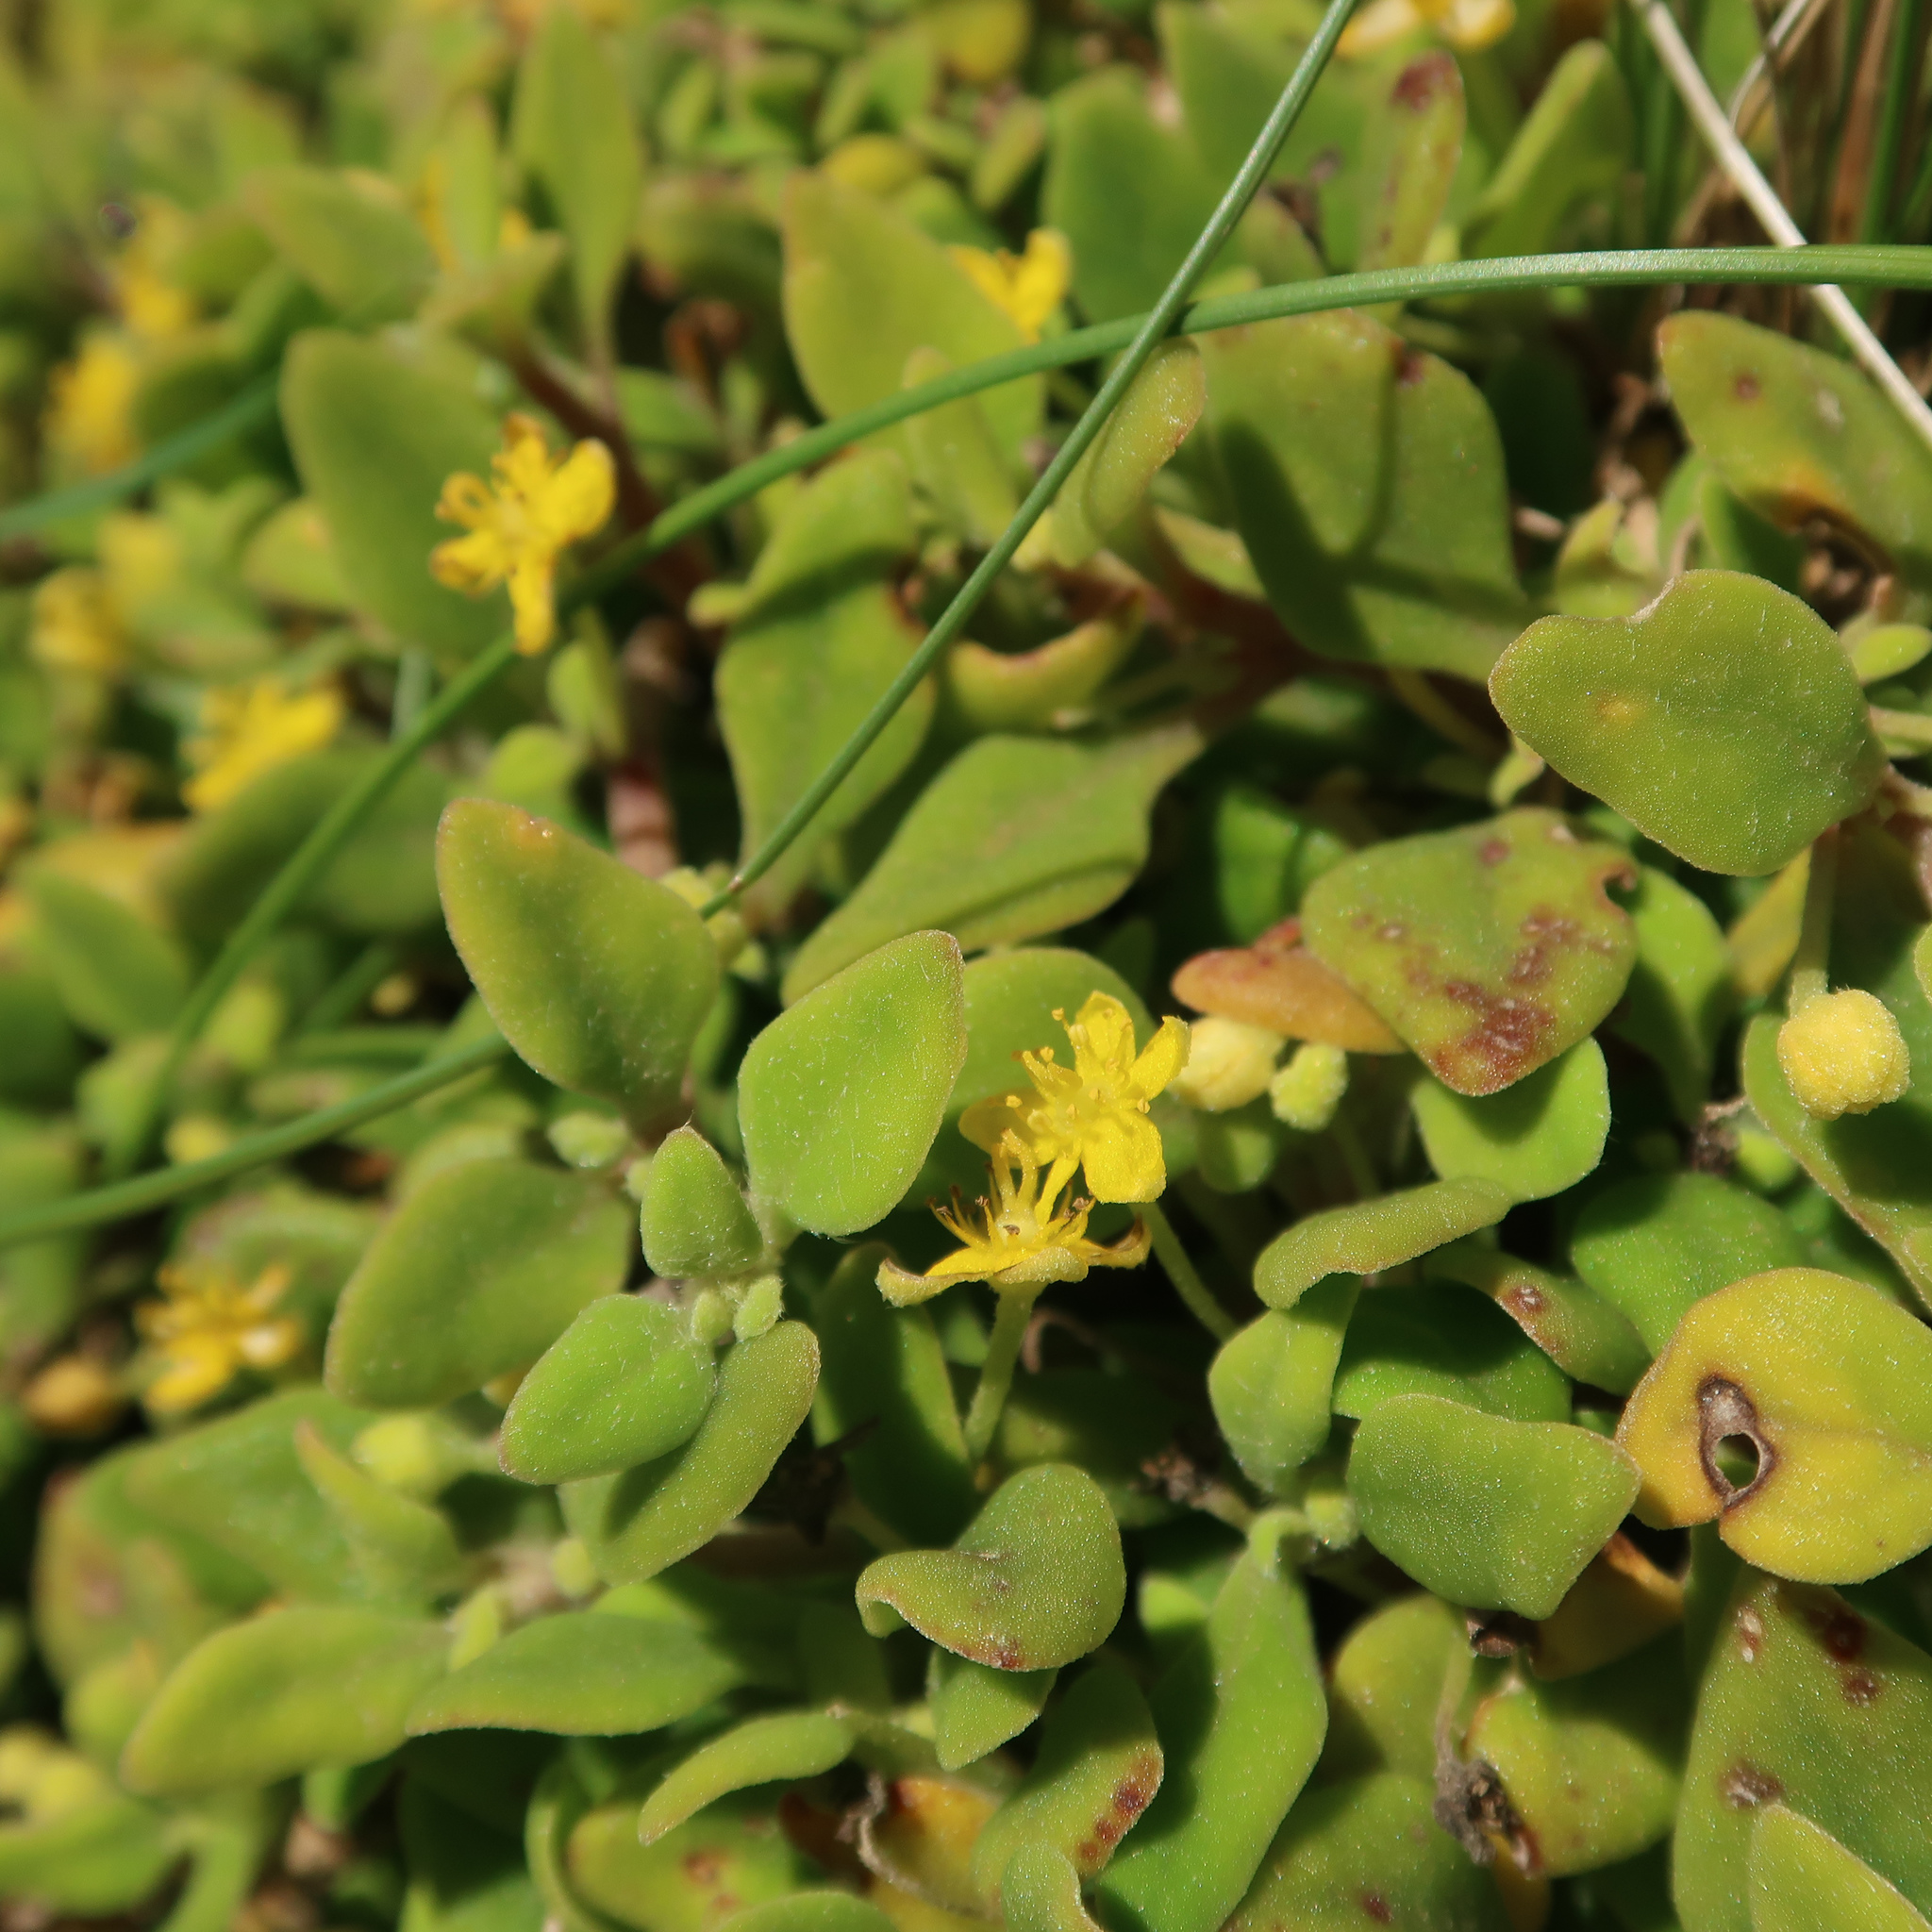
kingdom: Plantae
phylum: Tracheophyta
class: Magnoliopsida
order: Caryophyllales
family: Aizoaceae
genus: Tetragonia
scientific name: Tetragonia implexicoma
